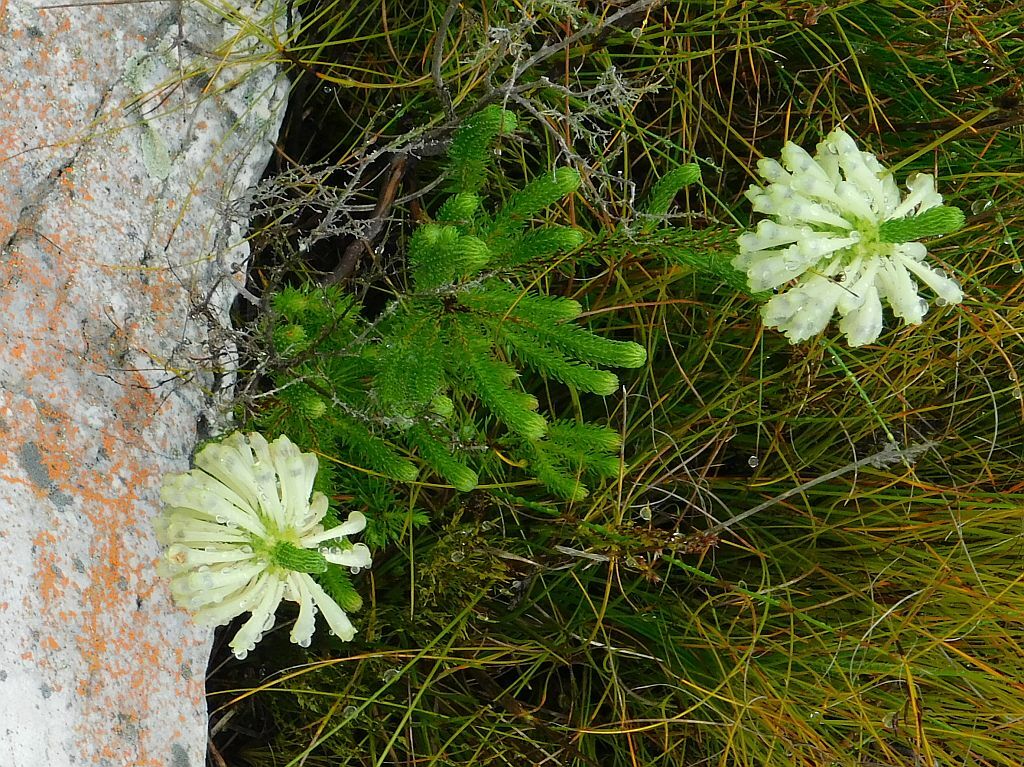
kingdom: Plantae
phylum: Tracheophyta
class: Magnoliopsida
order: Ericales
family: Ericaceae
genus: Erica
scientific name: Erica sessiliflora
